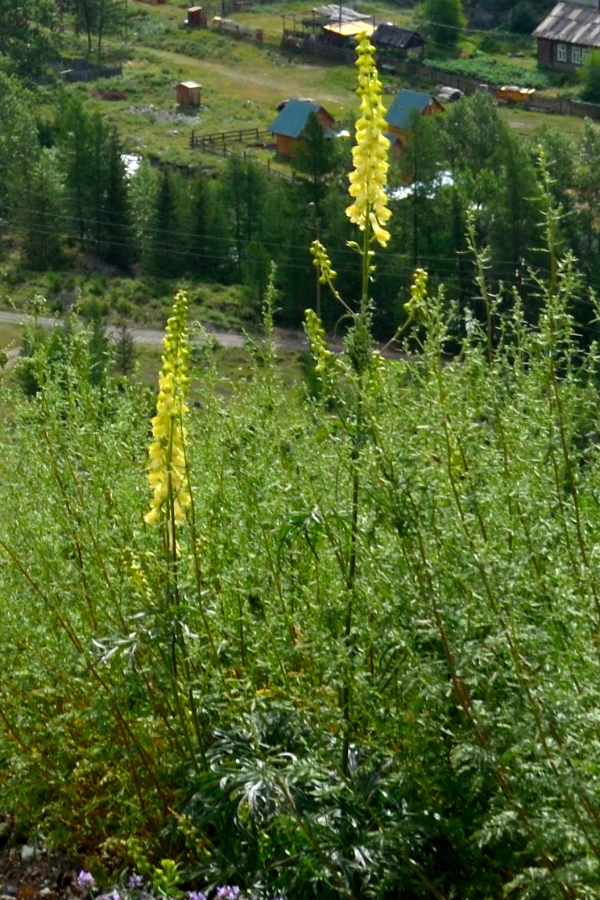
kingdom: Plantae
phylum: Tracheophyta
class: Magnoliopsida
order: Ranunculales
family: Ranunculaceae
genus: Aconitum
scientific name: Aconitum barbatum
